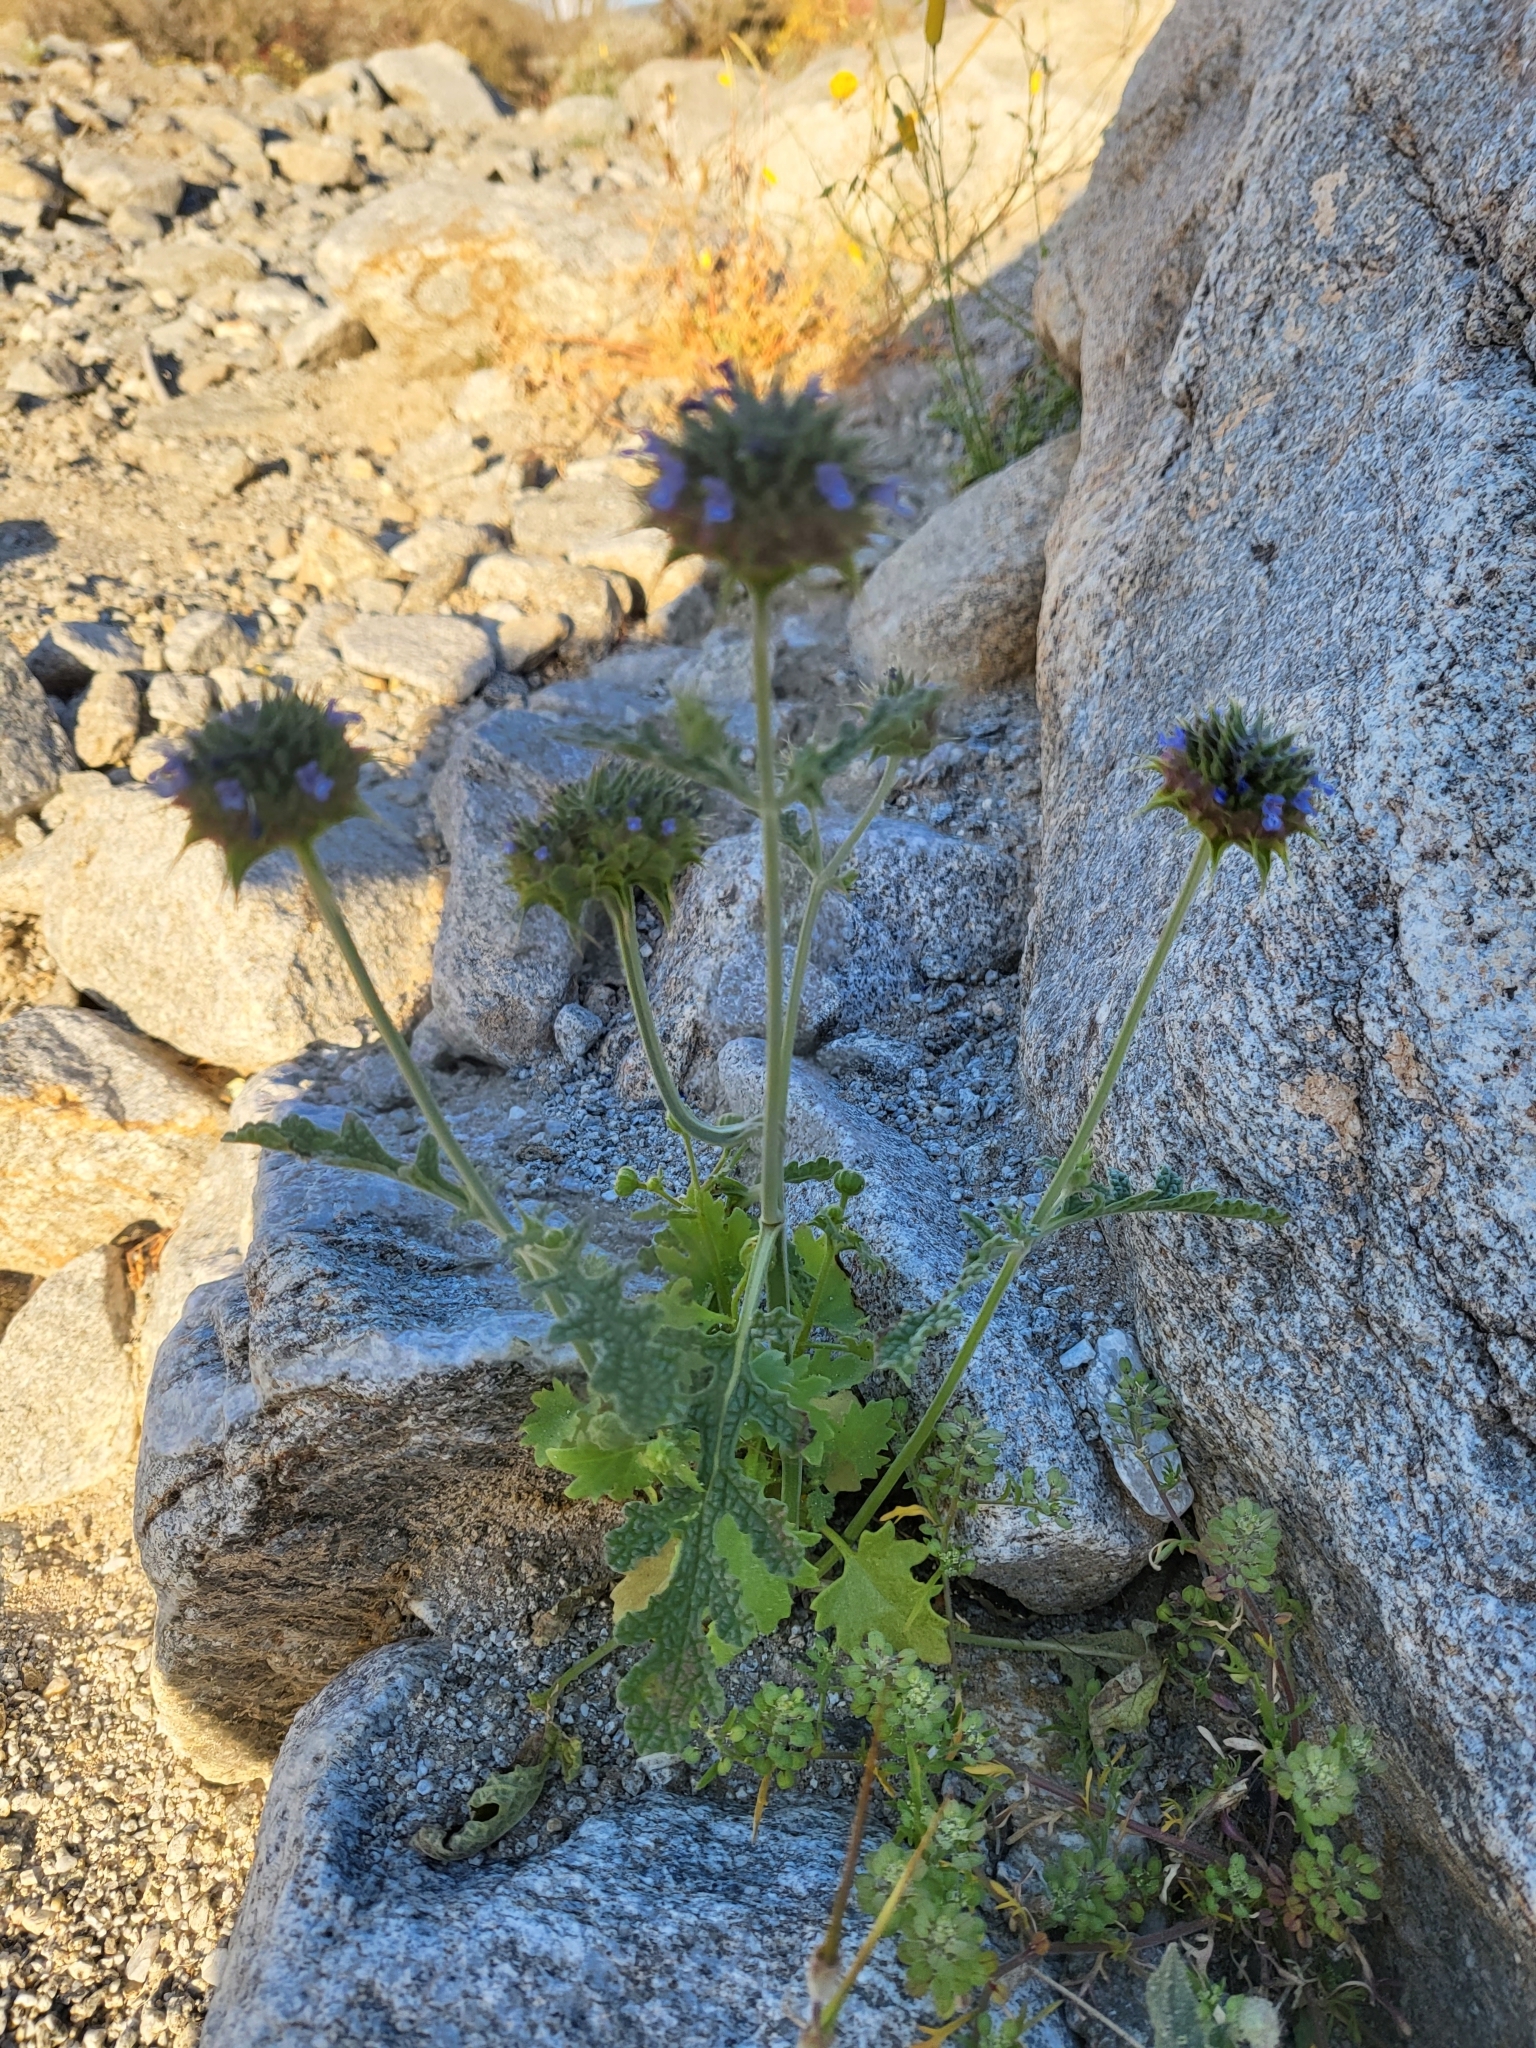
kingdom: Plantae
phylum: Tracheophyta
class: Magnoliopsida
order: Lamiales
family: Lamiaceae
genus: Salvia
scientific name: Salvia columbariae
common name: Chia
